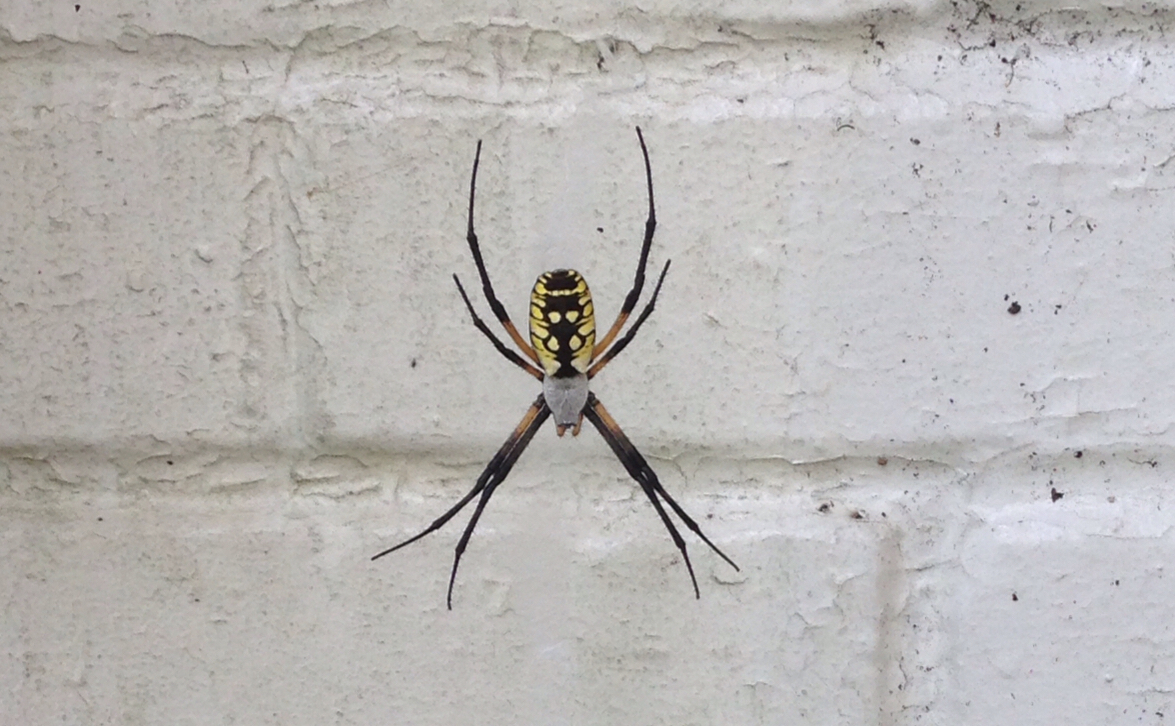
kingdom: Animalia
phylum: Arthropoda
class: Arachnida
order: Araneae
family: Araneidae
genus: Argiope
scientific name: Argiope aurantia
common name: Orb weavers
